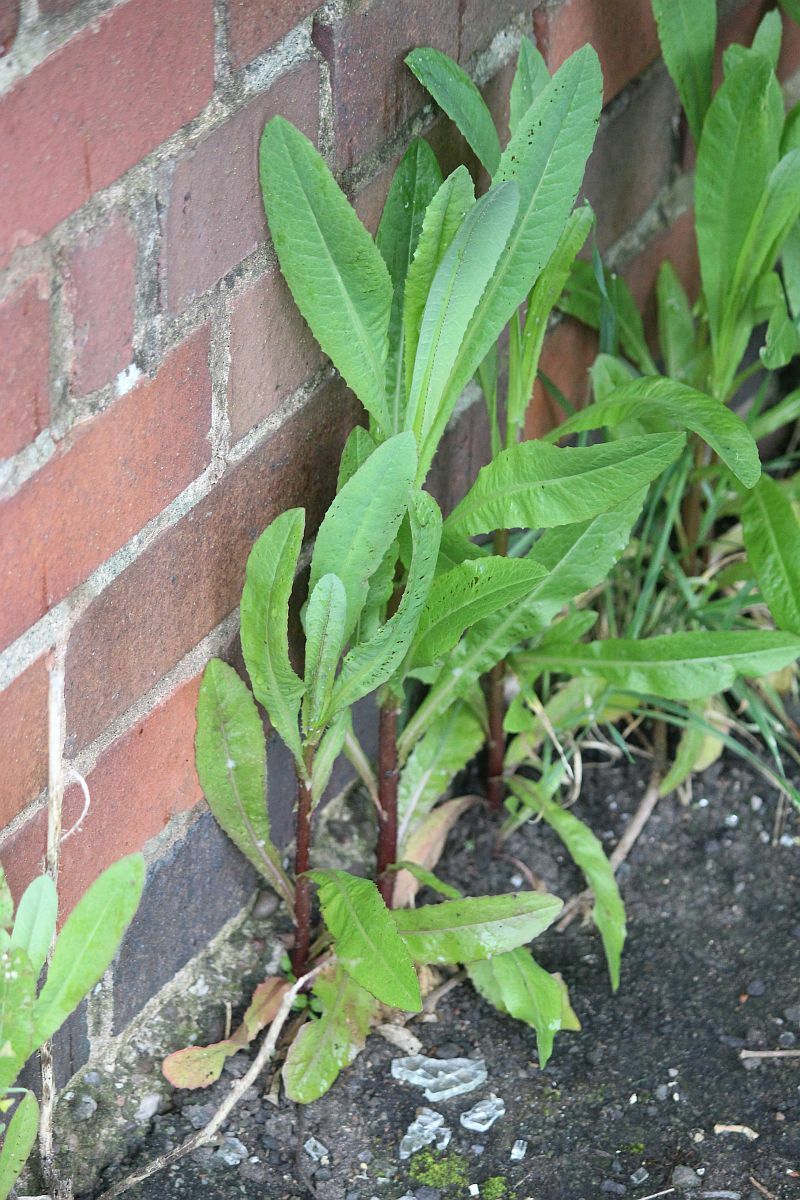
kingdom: Plantae
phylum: Tracheophyta
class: Magnoliopsida
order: Asterales
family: Asteraceae
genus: Lactuca
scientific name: Lactuca serriola
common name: Prickly lettuce
